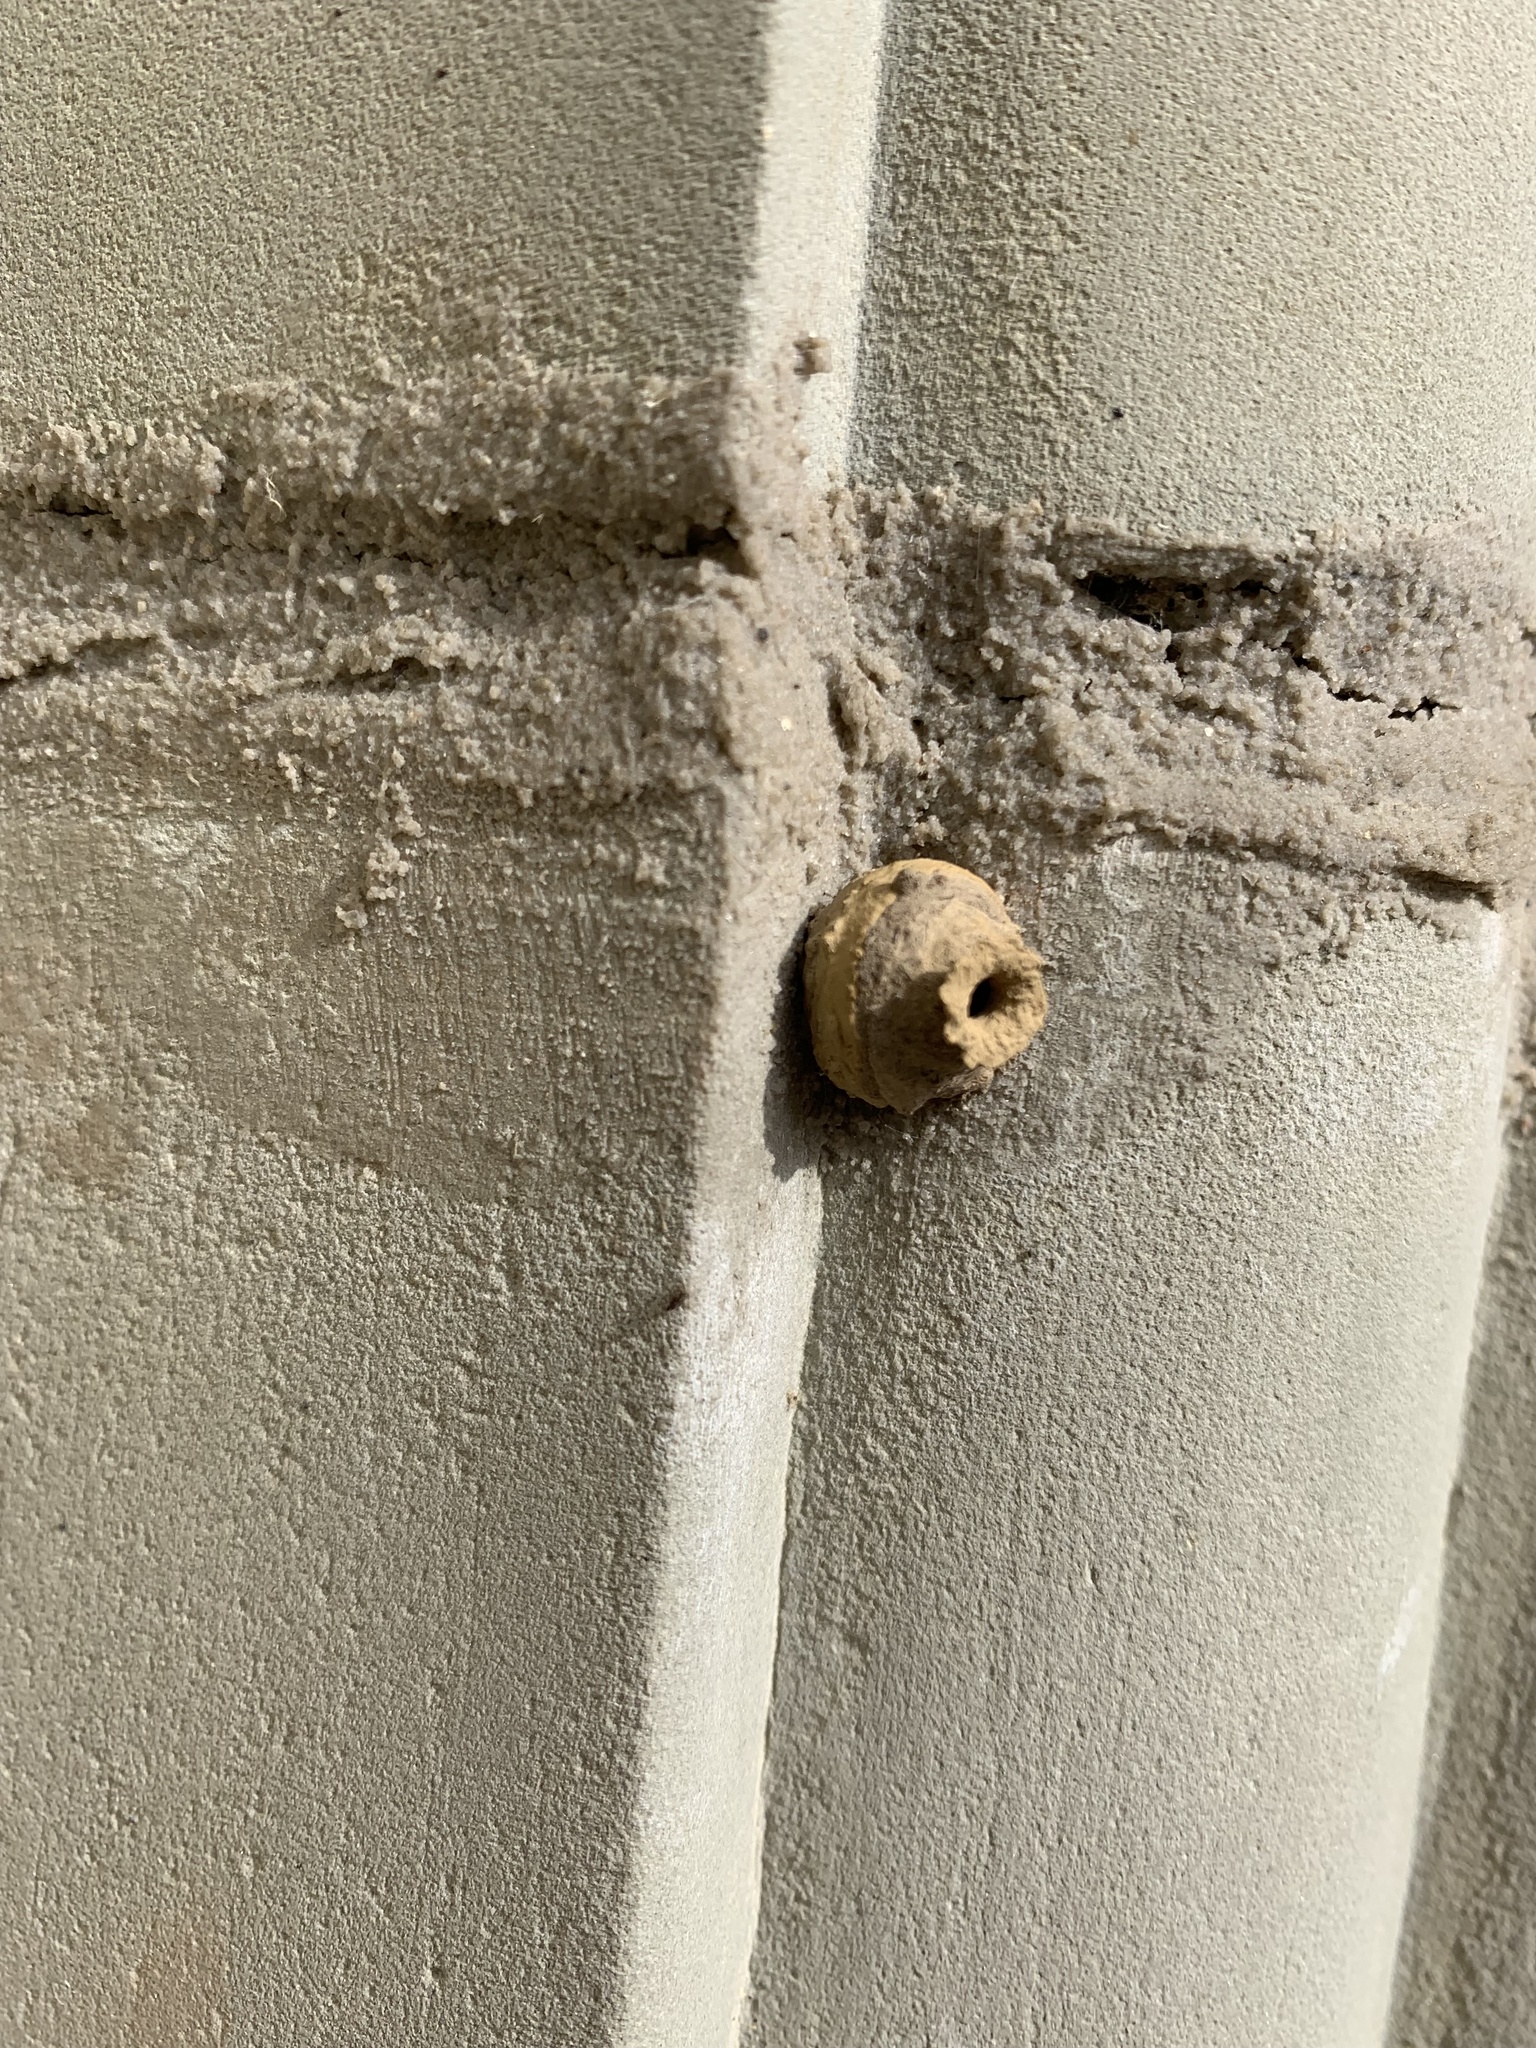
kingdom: Animalia
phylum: Arthropoda
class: Insecta
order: Hymenoptera
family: Vespidae
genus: Eumenes
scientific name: Eumenes
